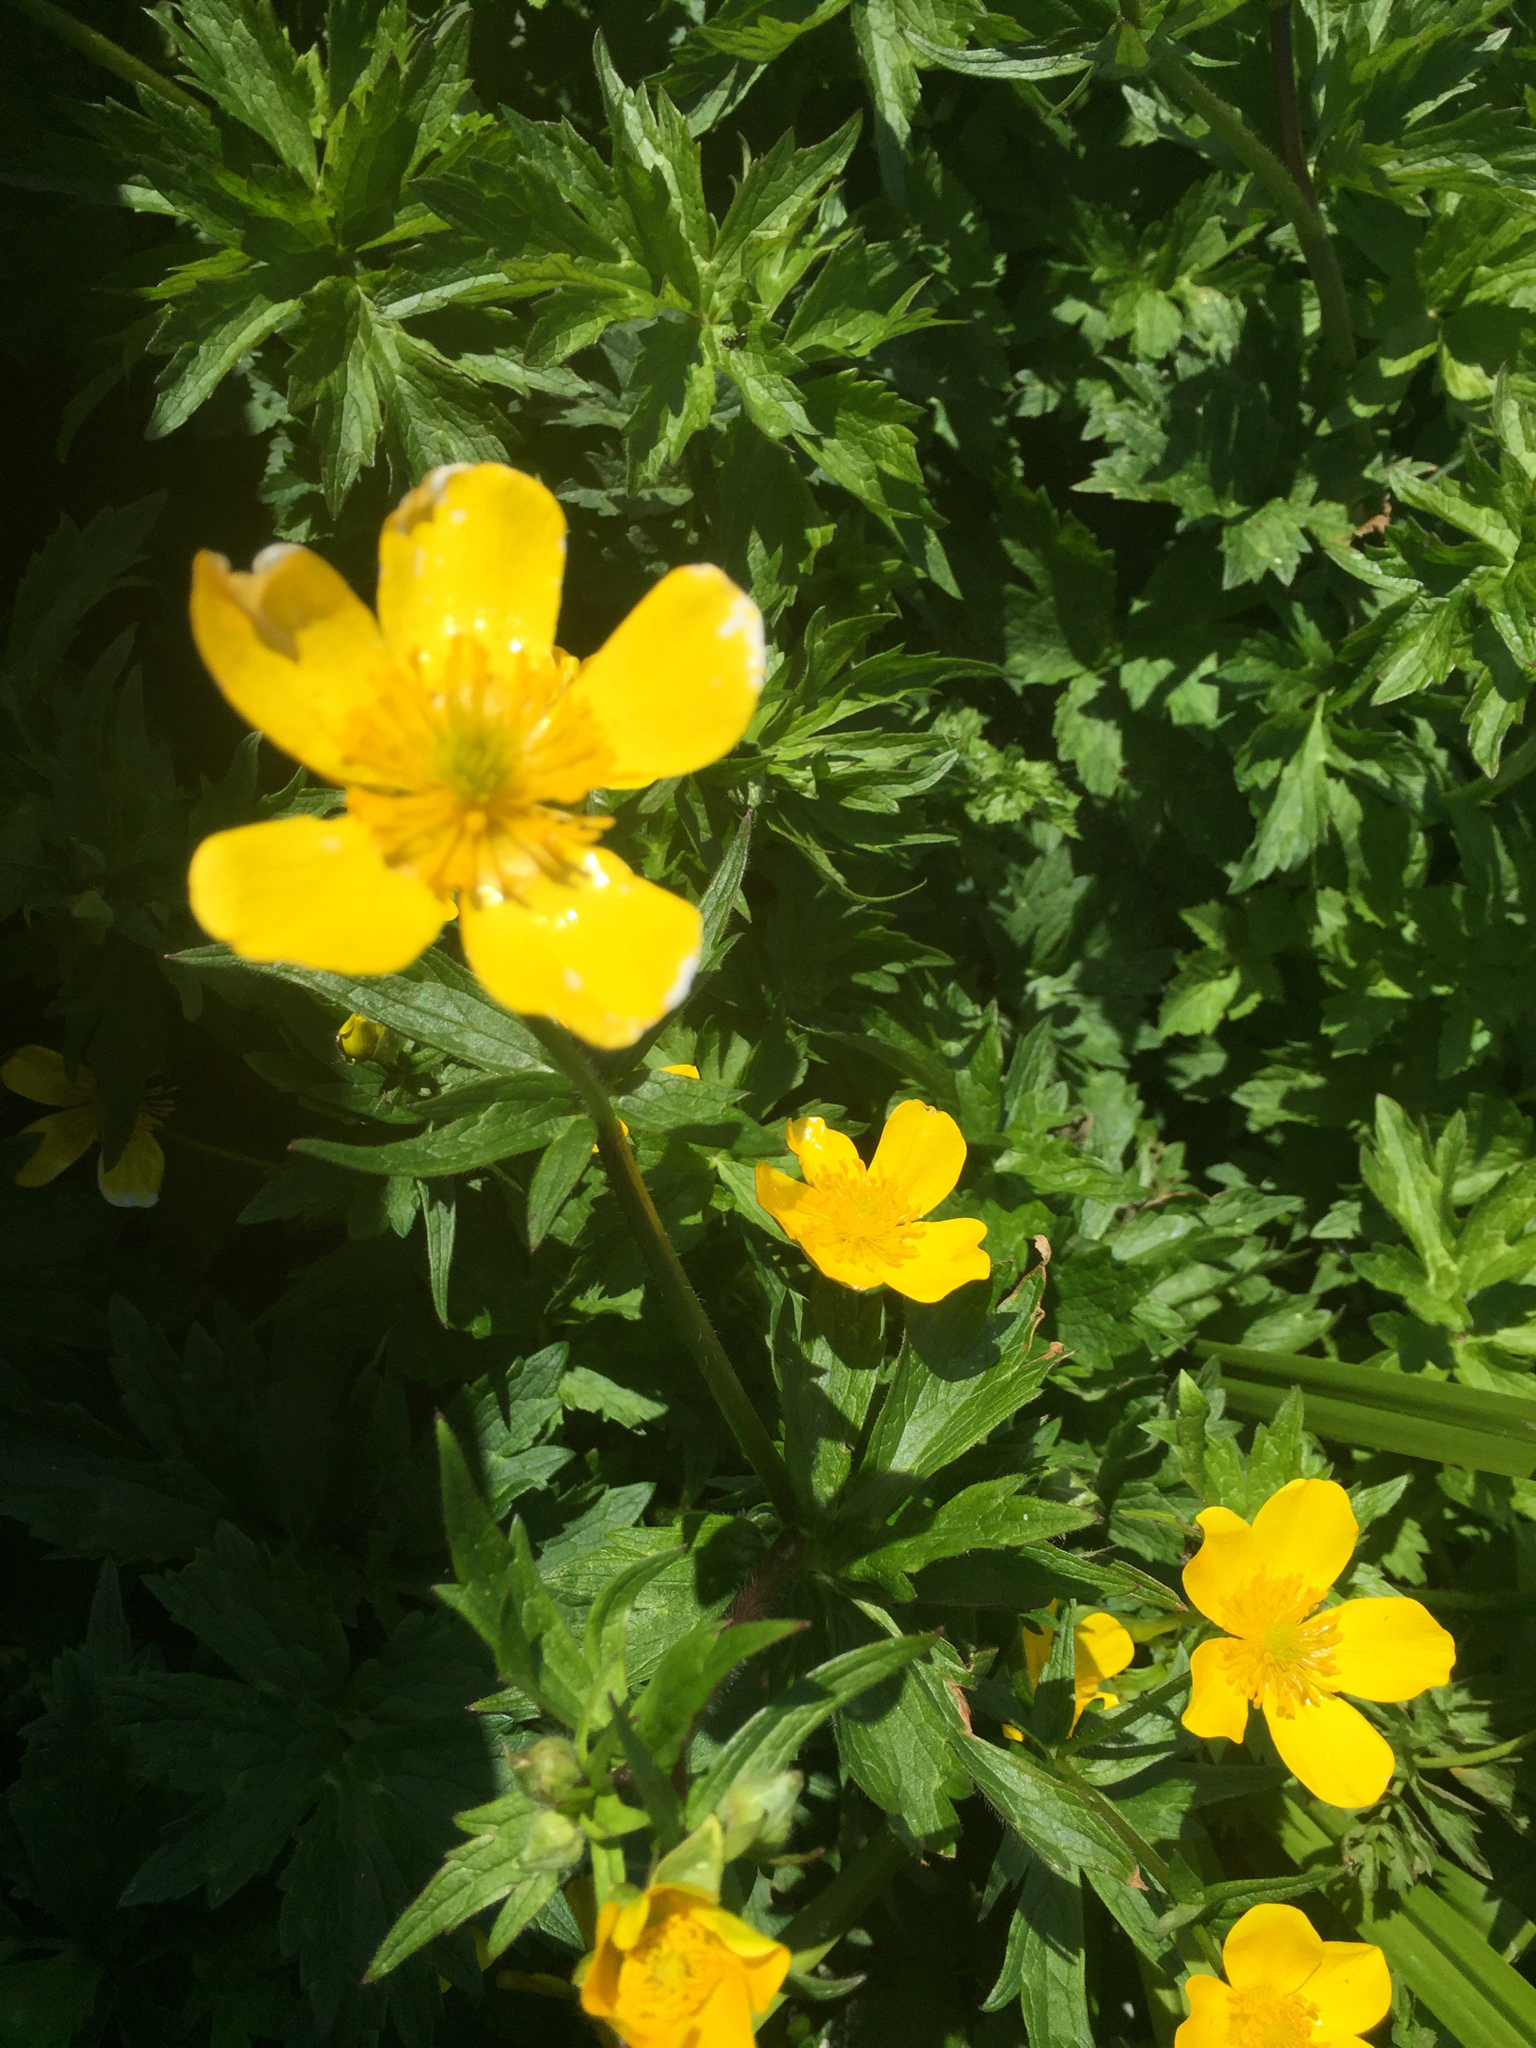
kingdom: Plantae
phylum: Tracheophyta
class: Magnoliopsida
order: Ranunculales
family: Ranunculaceae
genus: Ranunculus
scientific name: Ranunculus orthorhynchus
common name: Straight-beak buttercup
